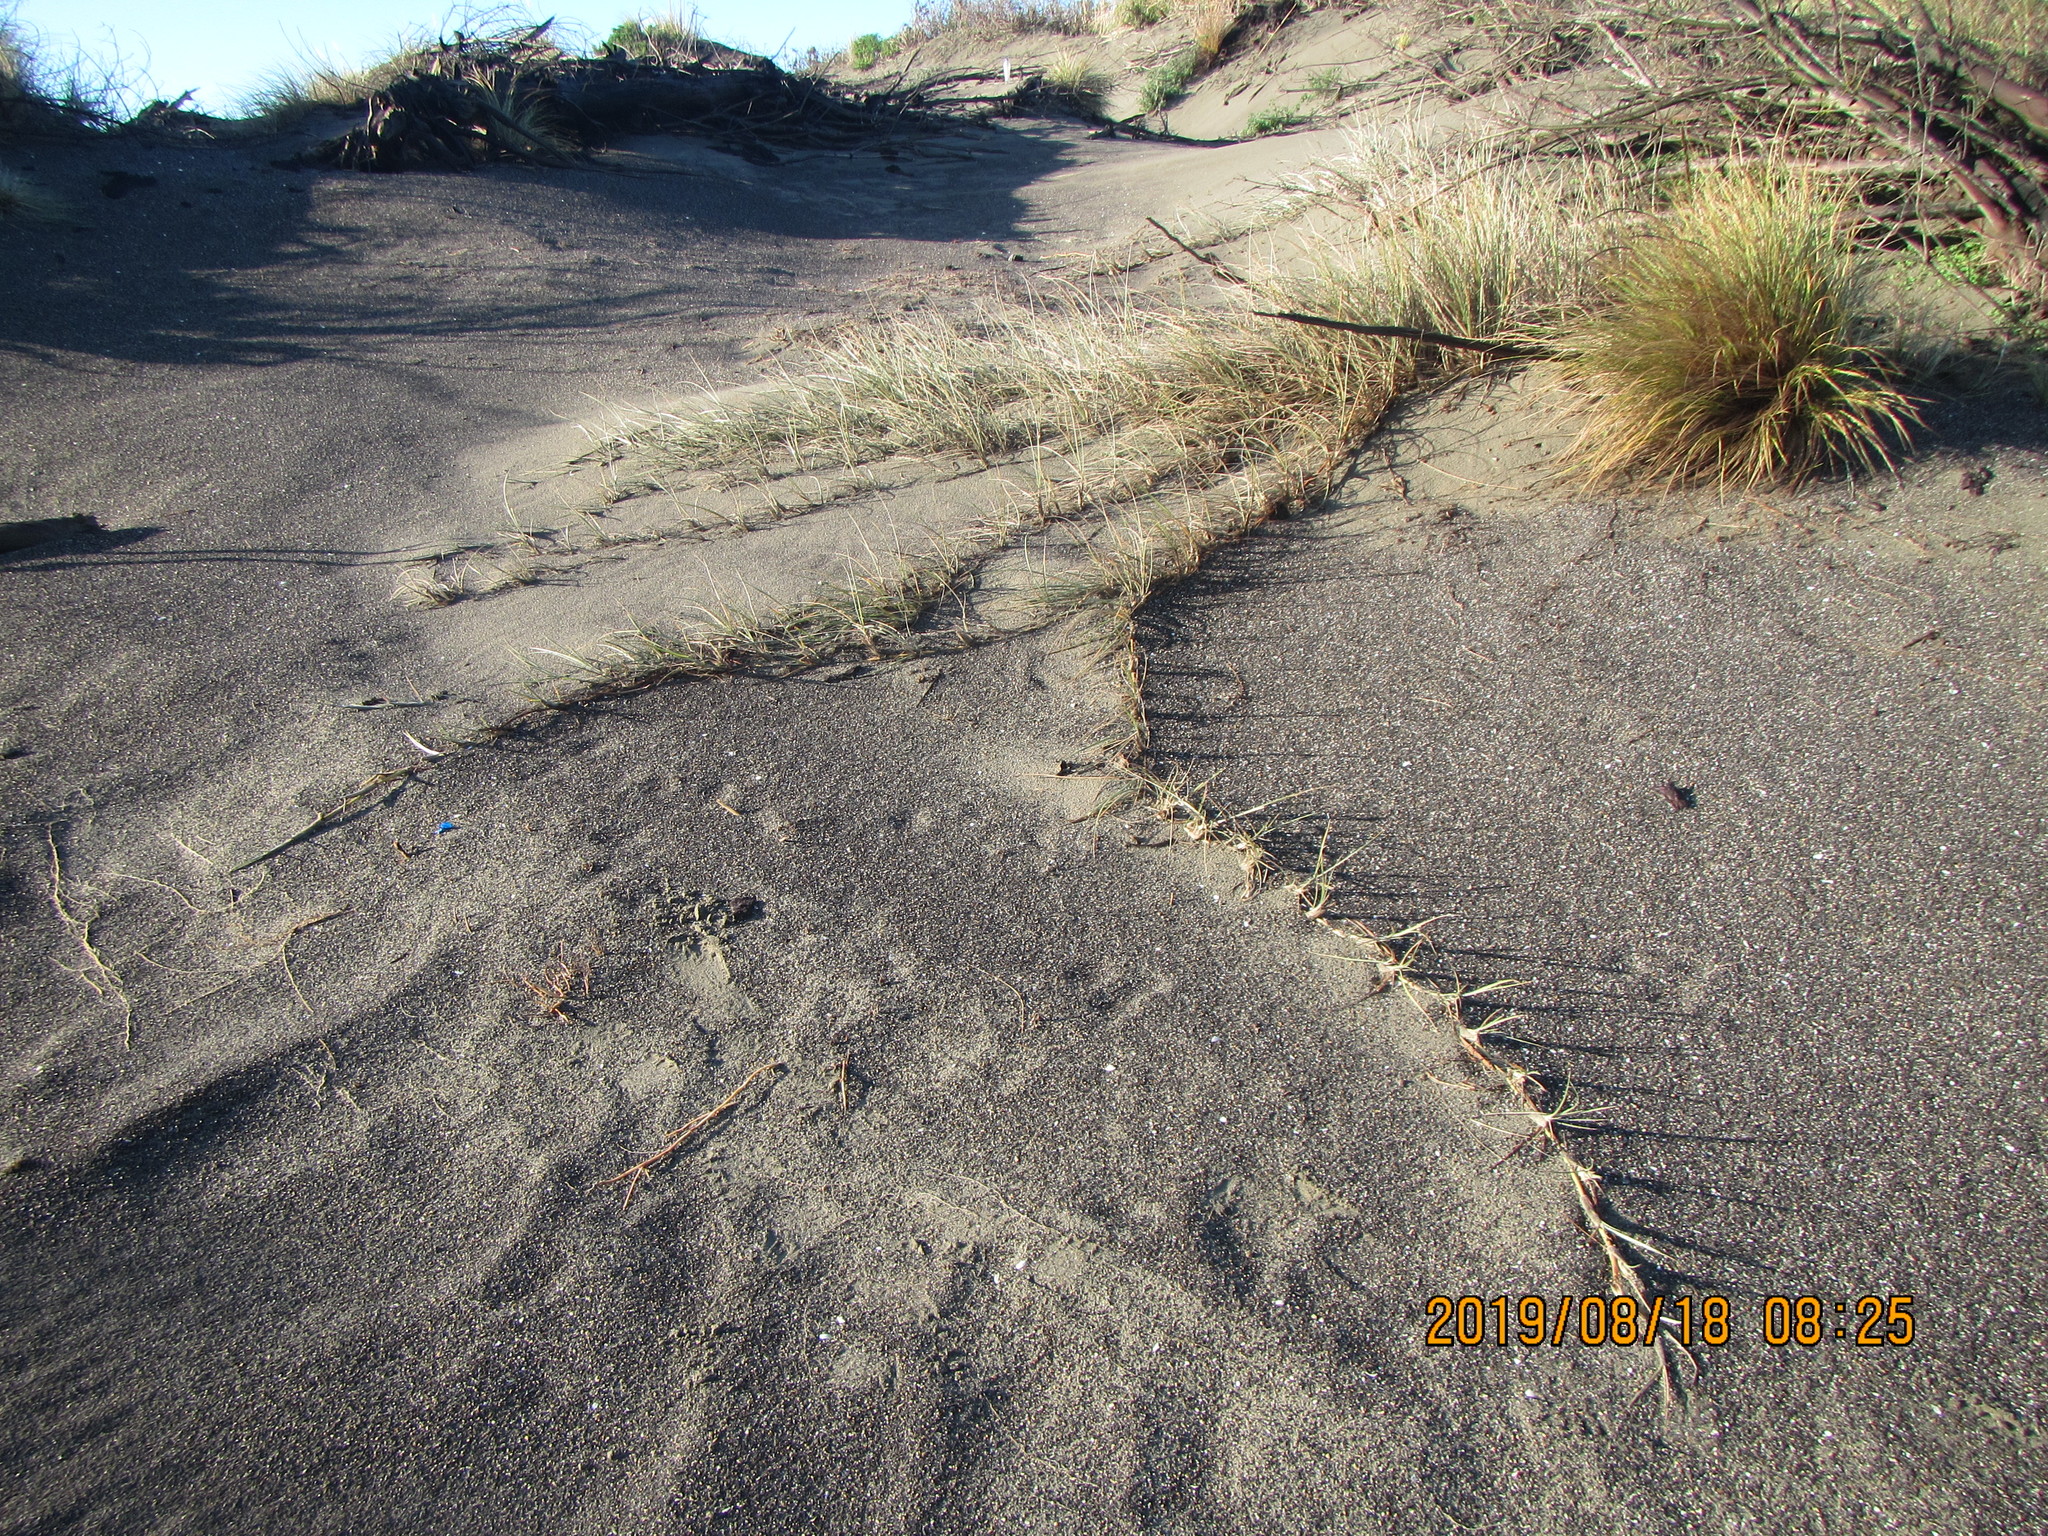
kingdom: Plantae
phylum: Tracheophyta
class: Liliopsida
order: Poales
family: Poaceae
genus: Spinifex
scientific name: Spinifex sericeus
